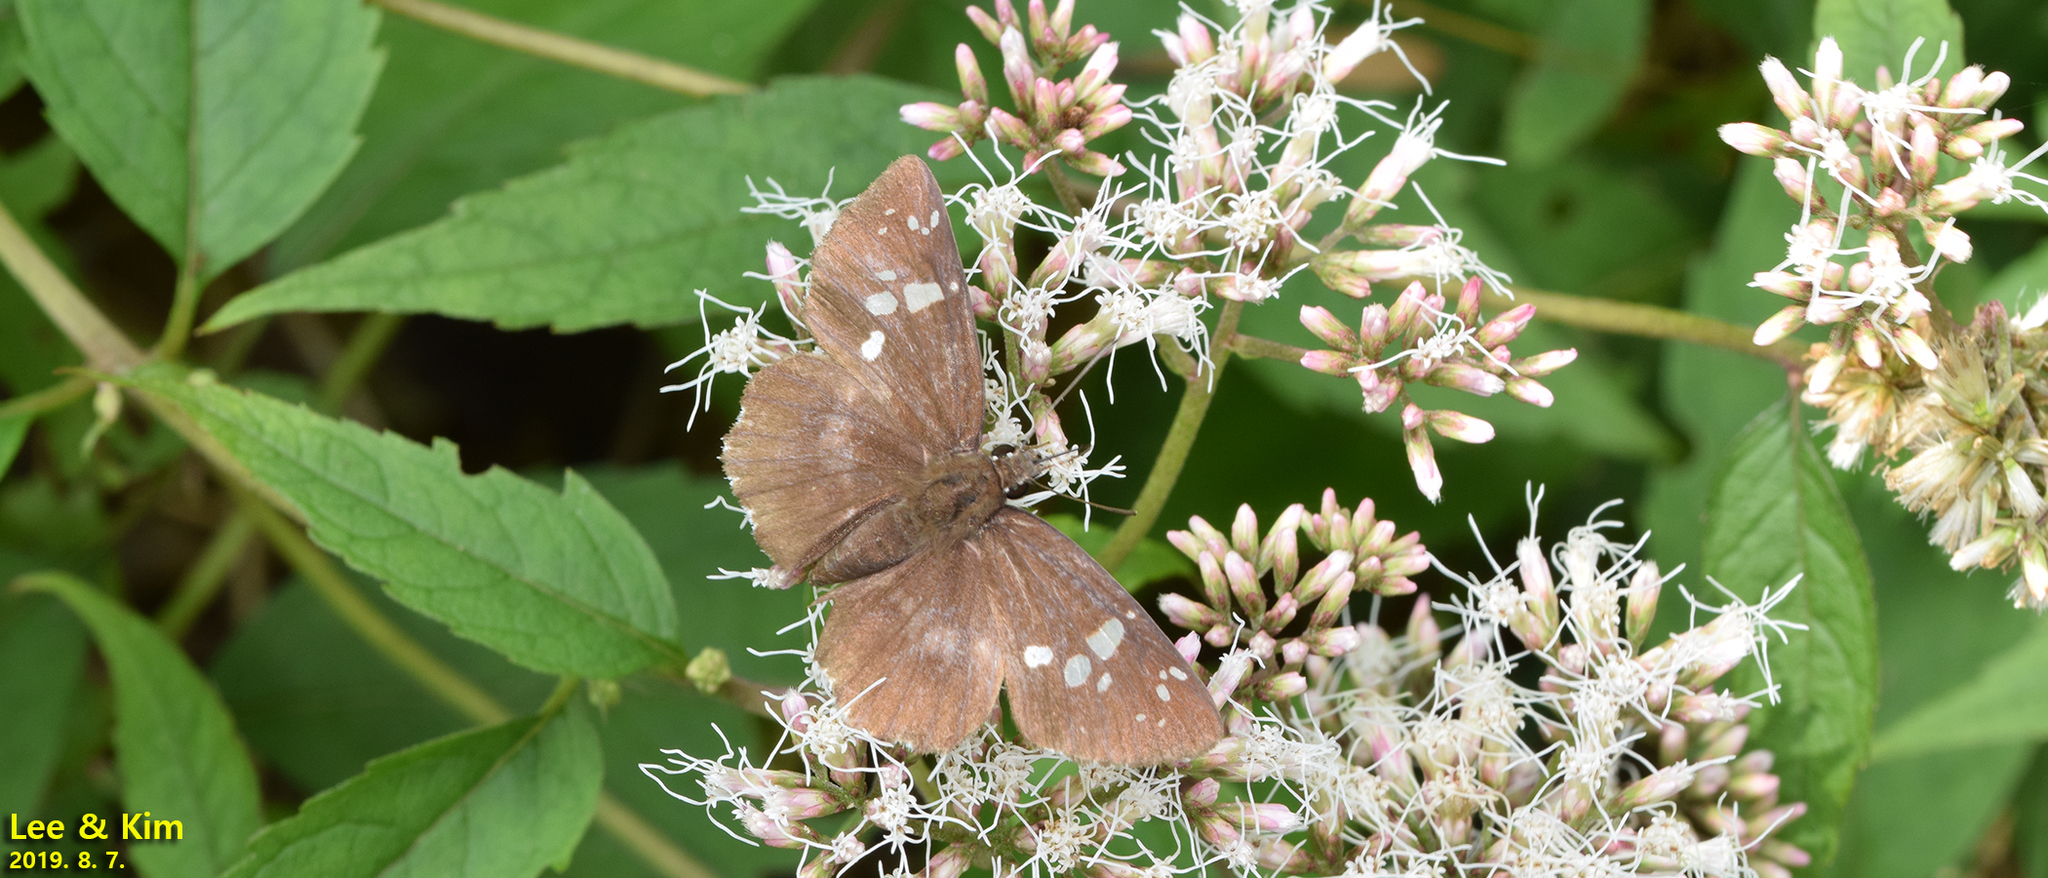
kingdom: Animalia
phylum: Arthropoda
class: Insecta
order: Lepidoptera
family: Hesperiidae
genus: Daimio
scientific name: Daimio tethys
